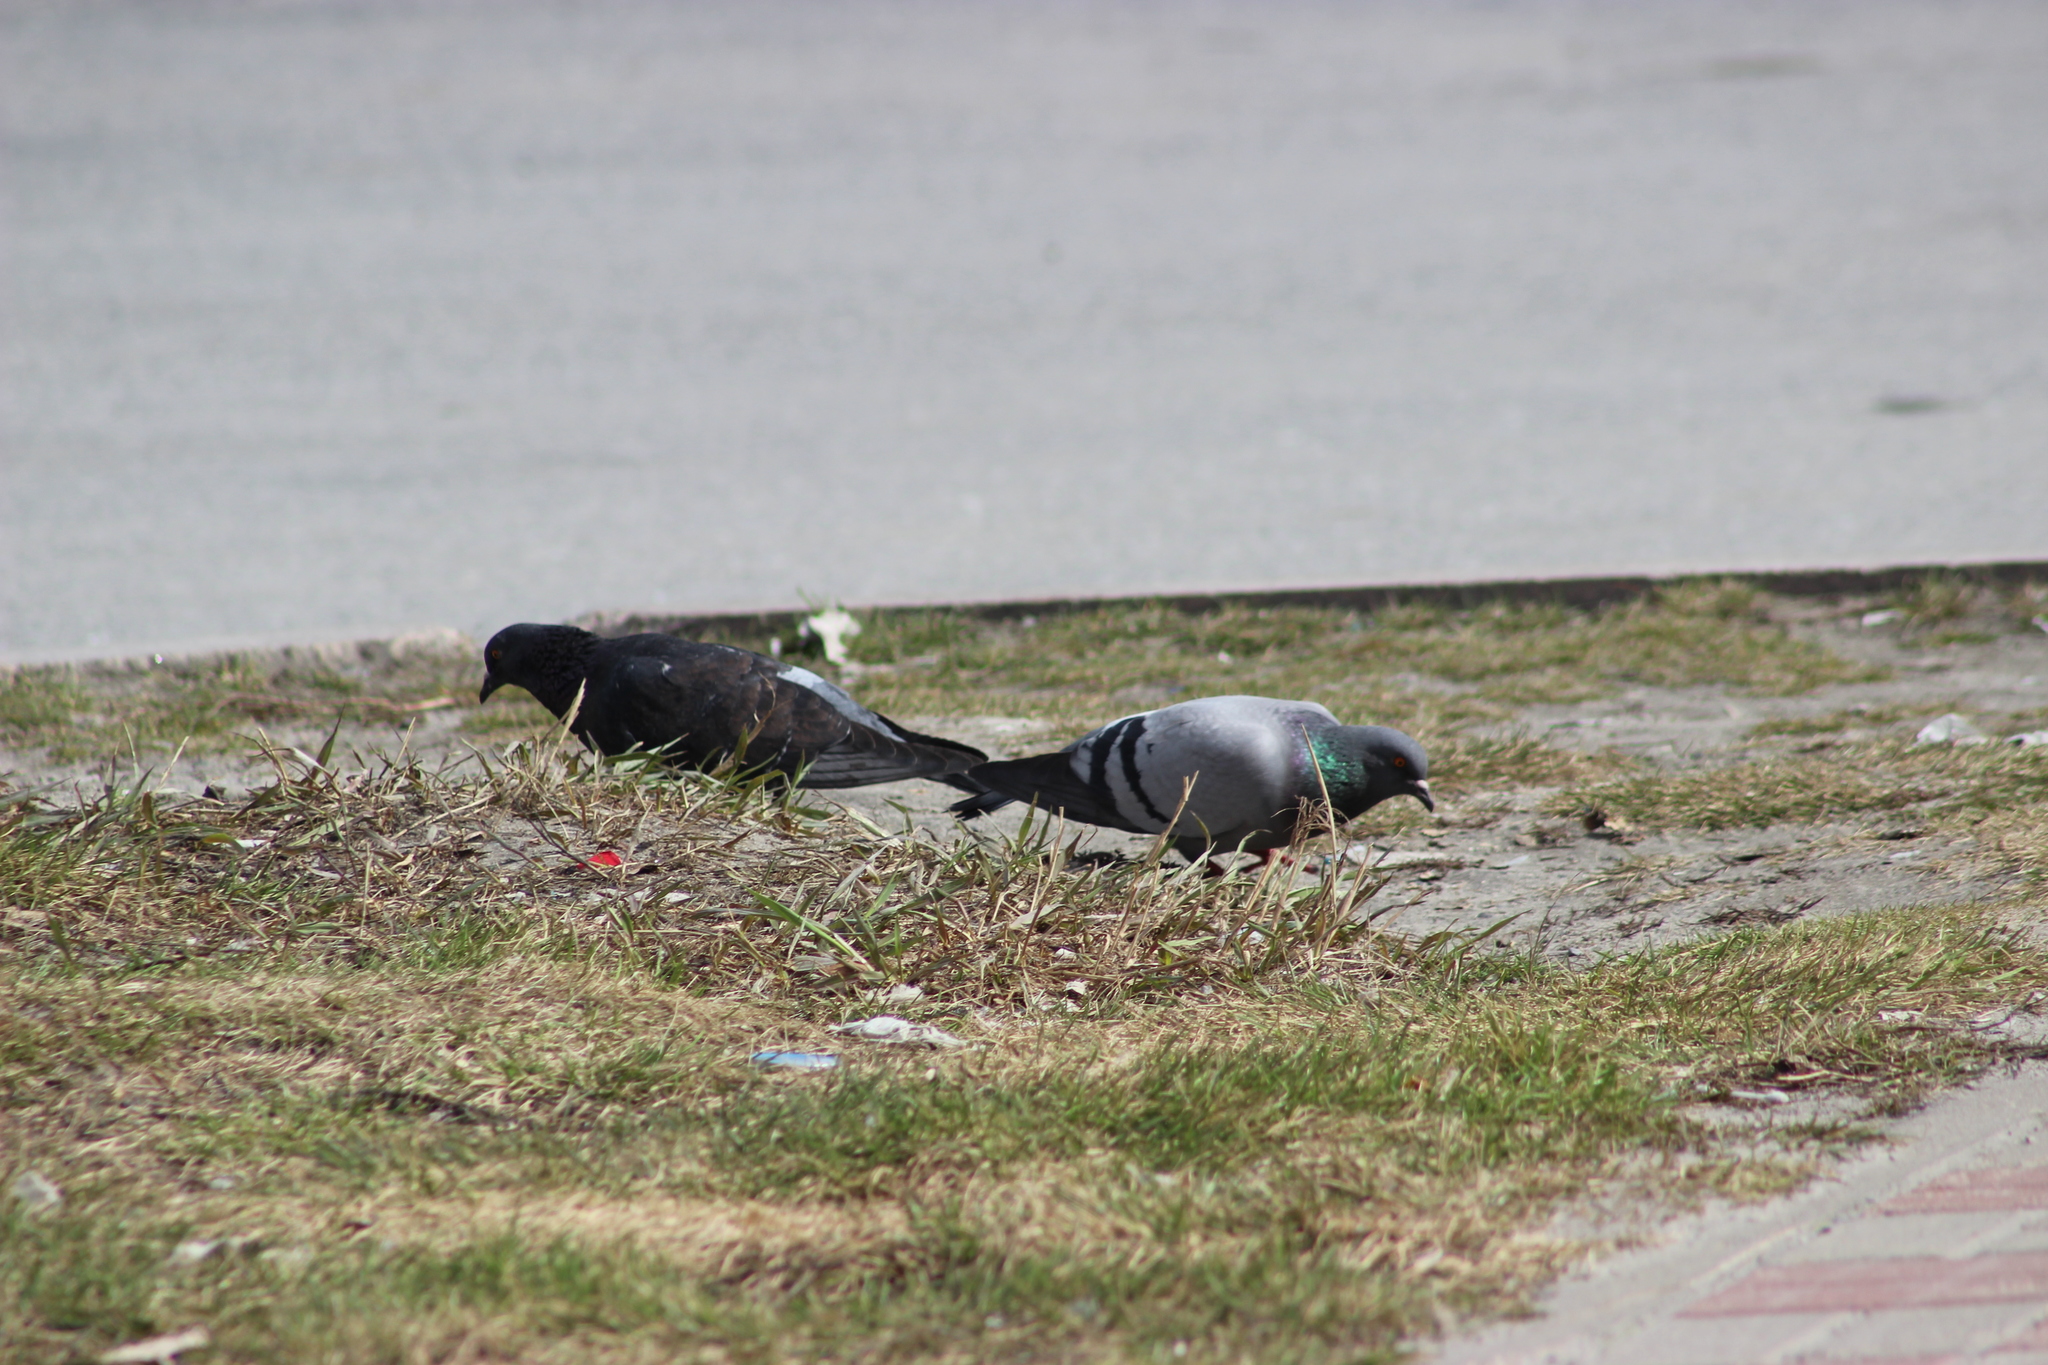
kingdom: Animalia
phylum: Chordata
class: Aves
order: Columbiformes
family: Columbidae
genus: Columba
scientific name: Columba livia
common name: Rock pigeon
